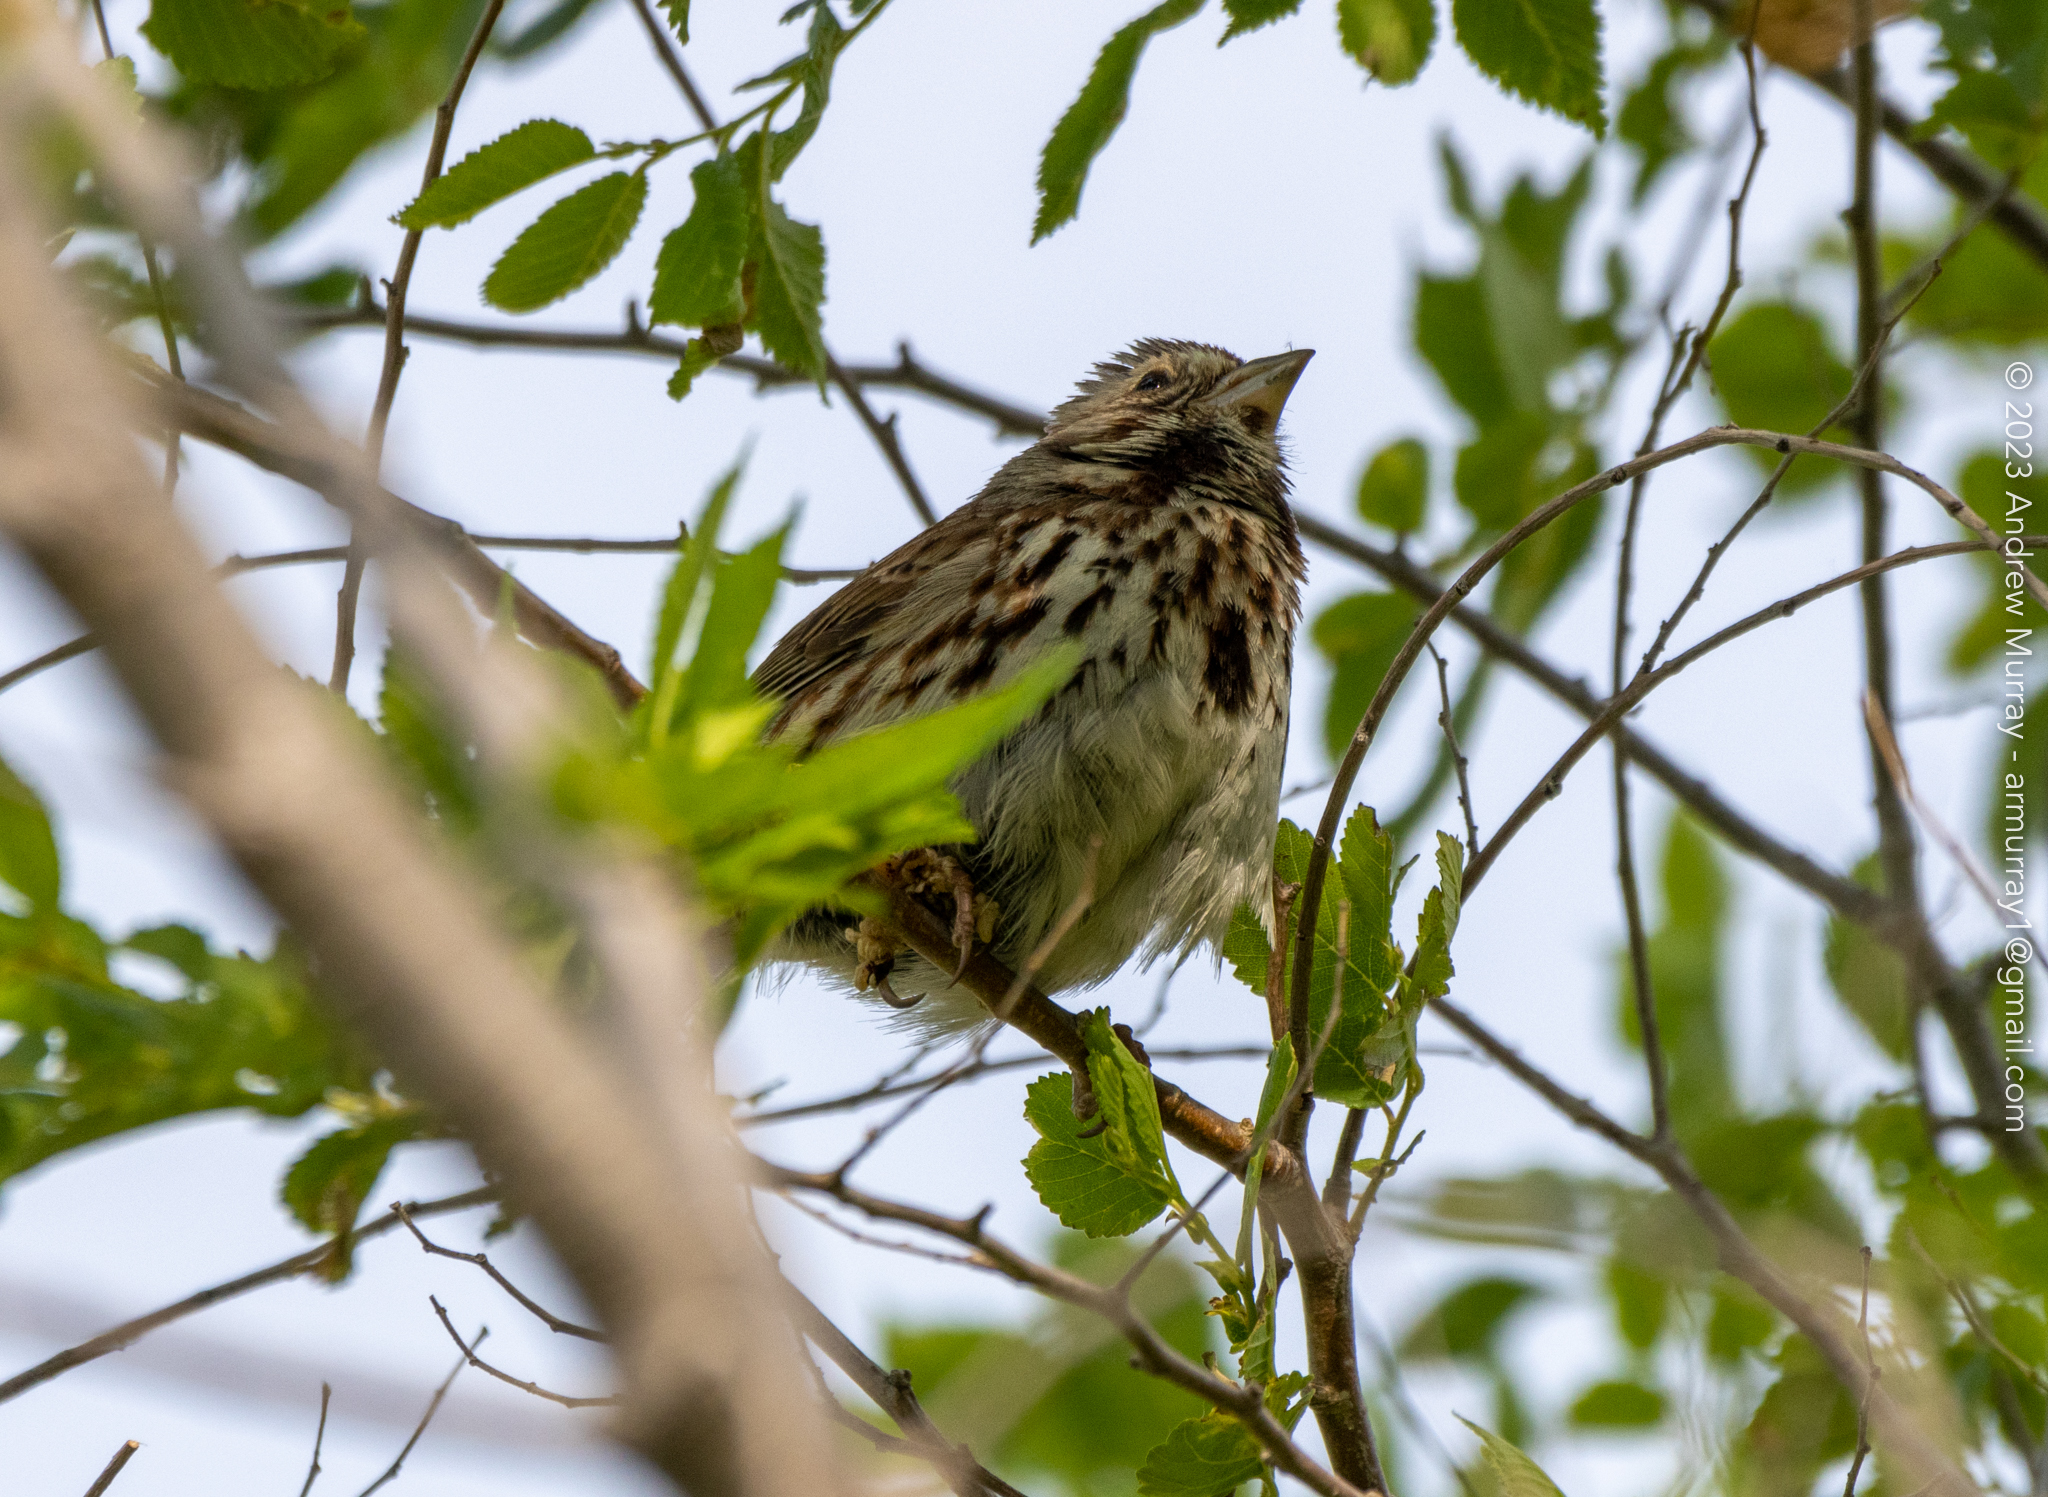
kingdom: Animalia
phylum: Chordata
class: Aves
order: Passeriformes
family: Passerellidae
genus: Melospiza
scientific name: Melospiza melodia
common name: Song sparrow
